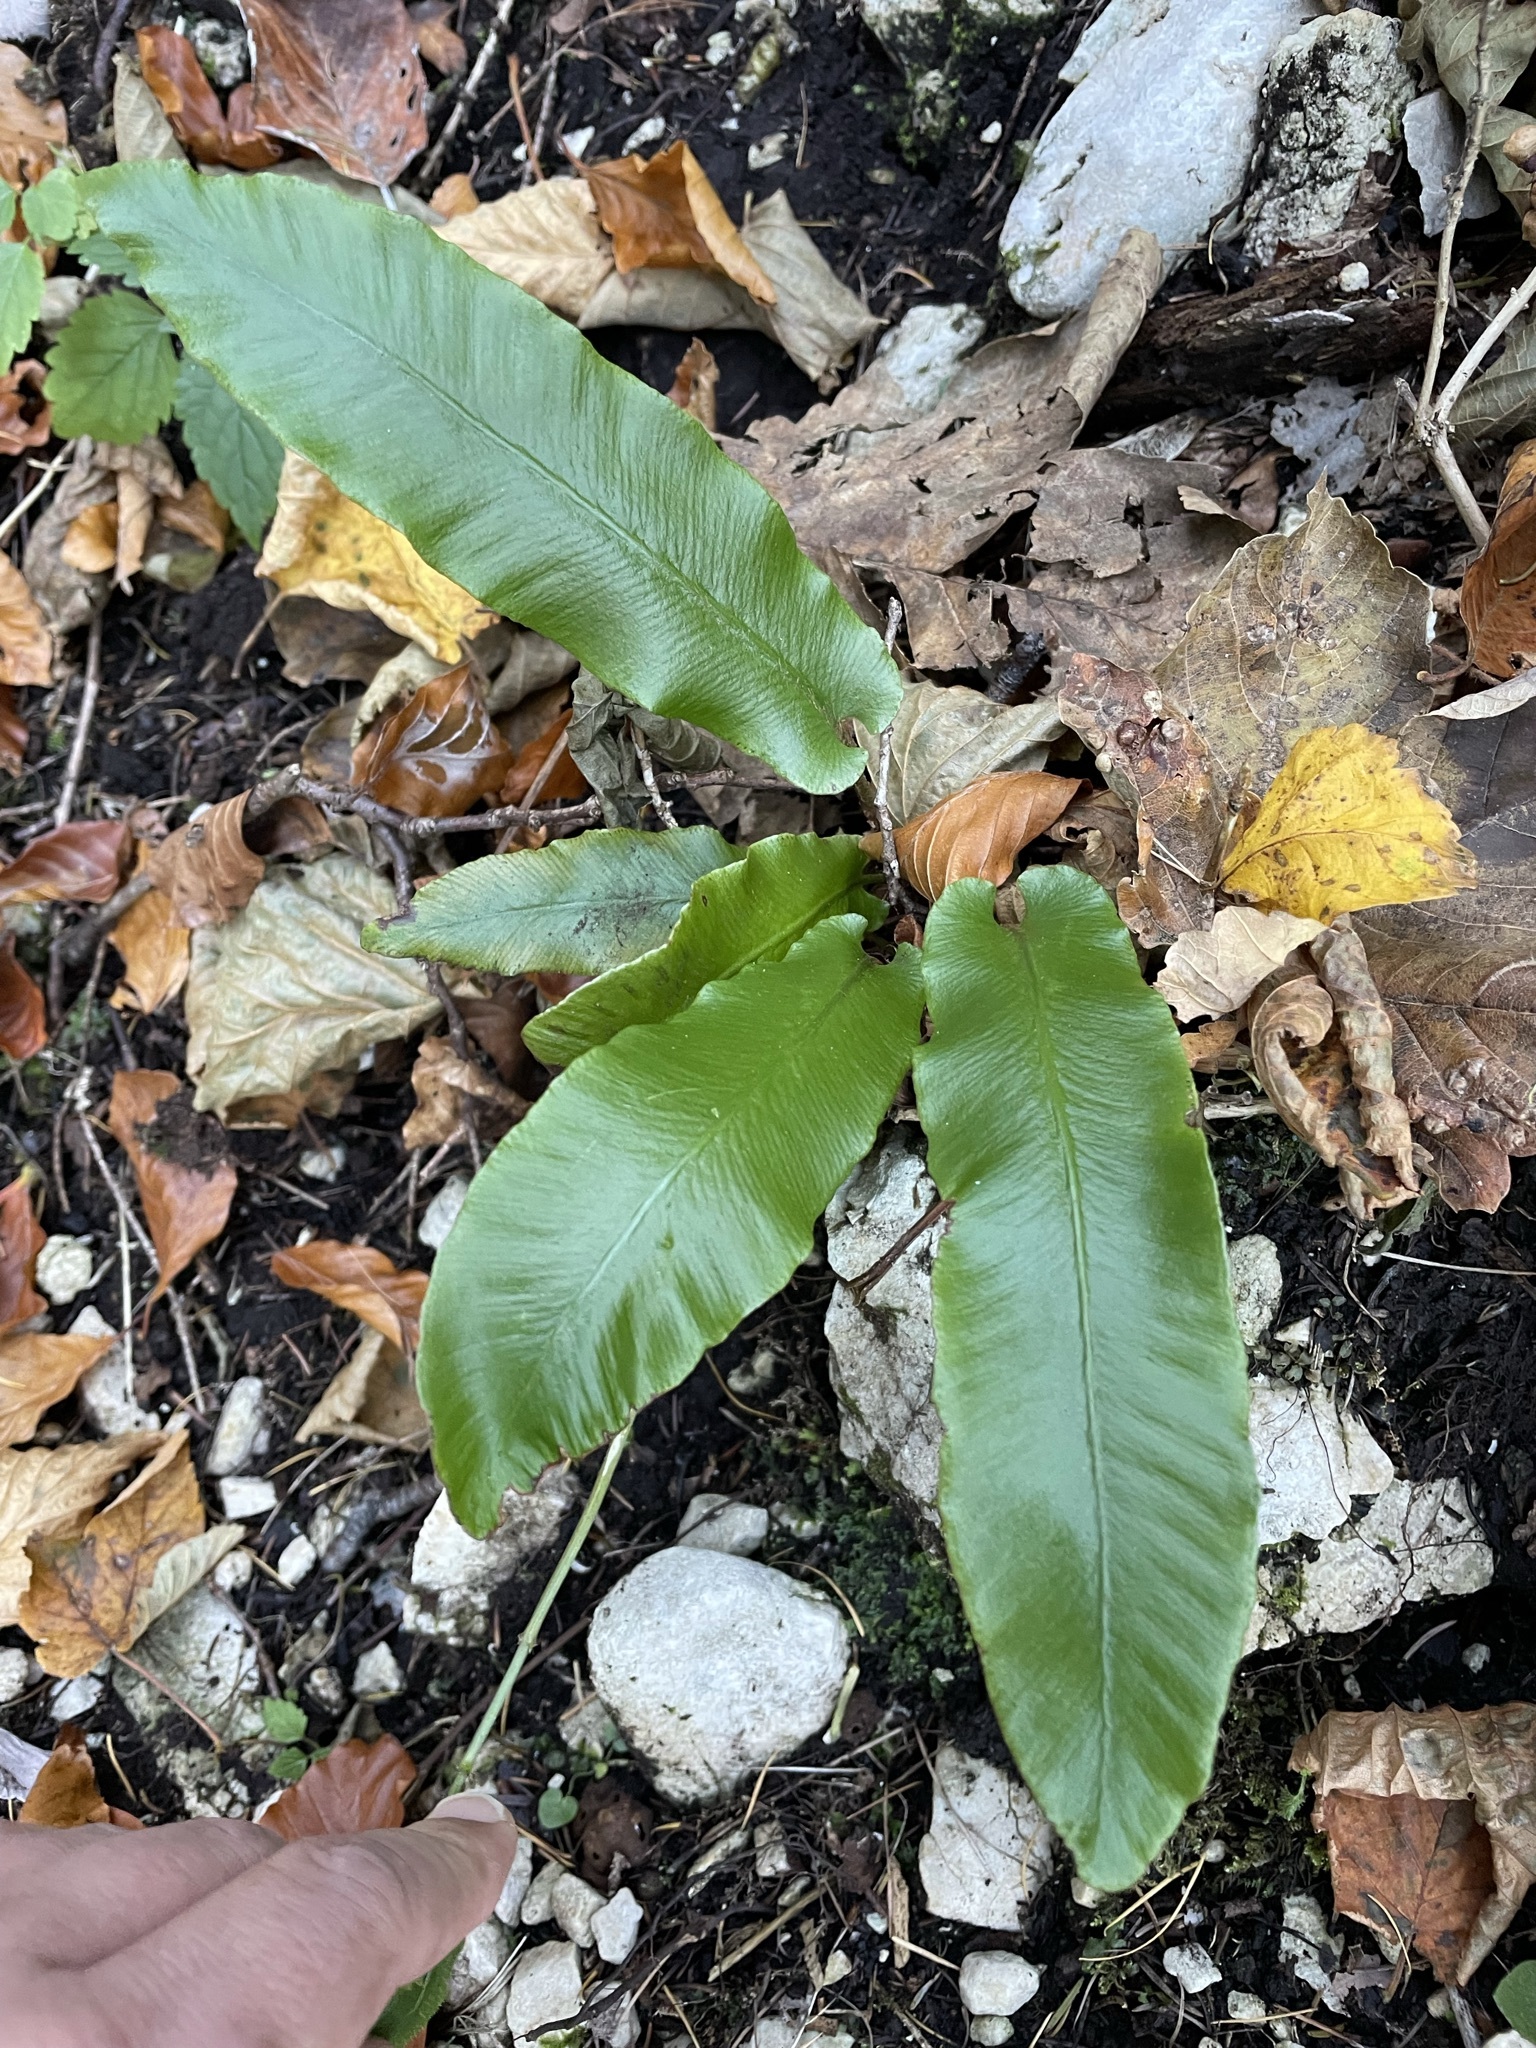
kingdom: Plantae
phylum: Tracheophyta
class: Polypodiopsida
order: Polypodiales
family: Aspleniaceae
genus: Asplenium
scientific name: Asplenium scolopendrium
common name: Hart's-tongue fern
